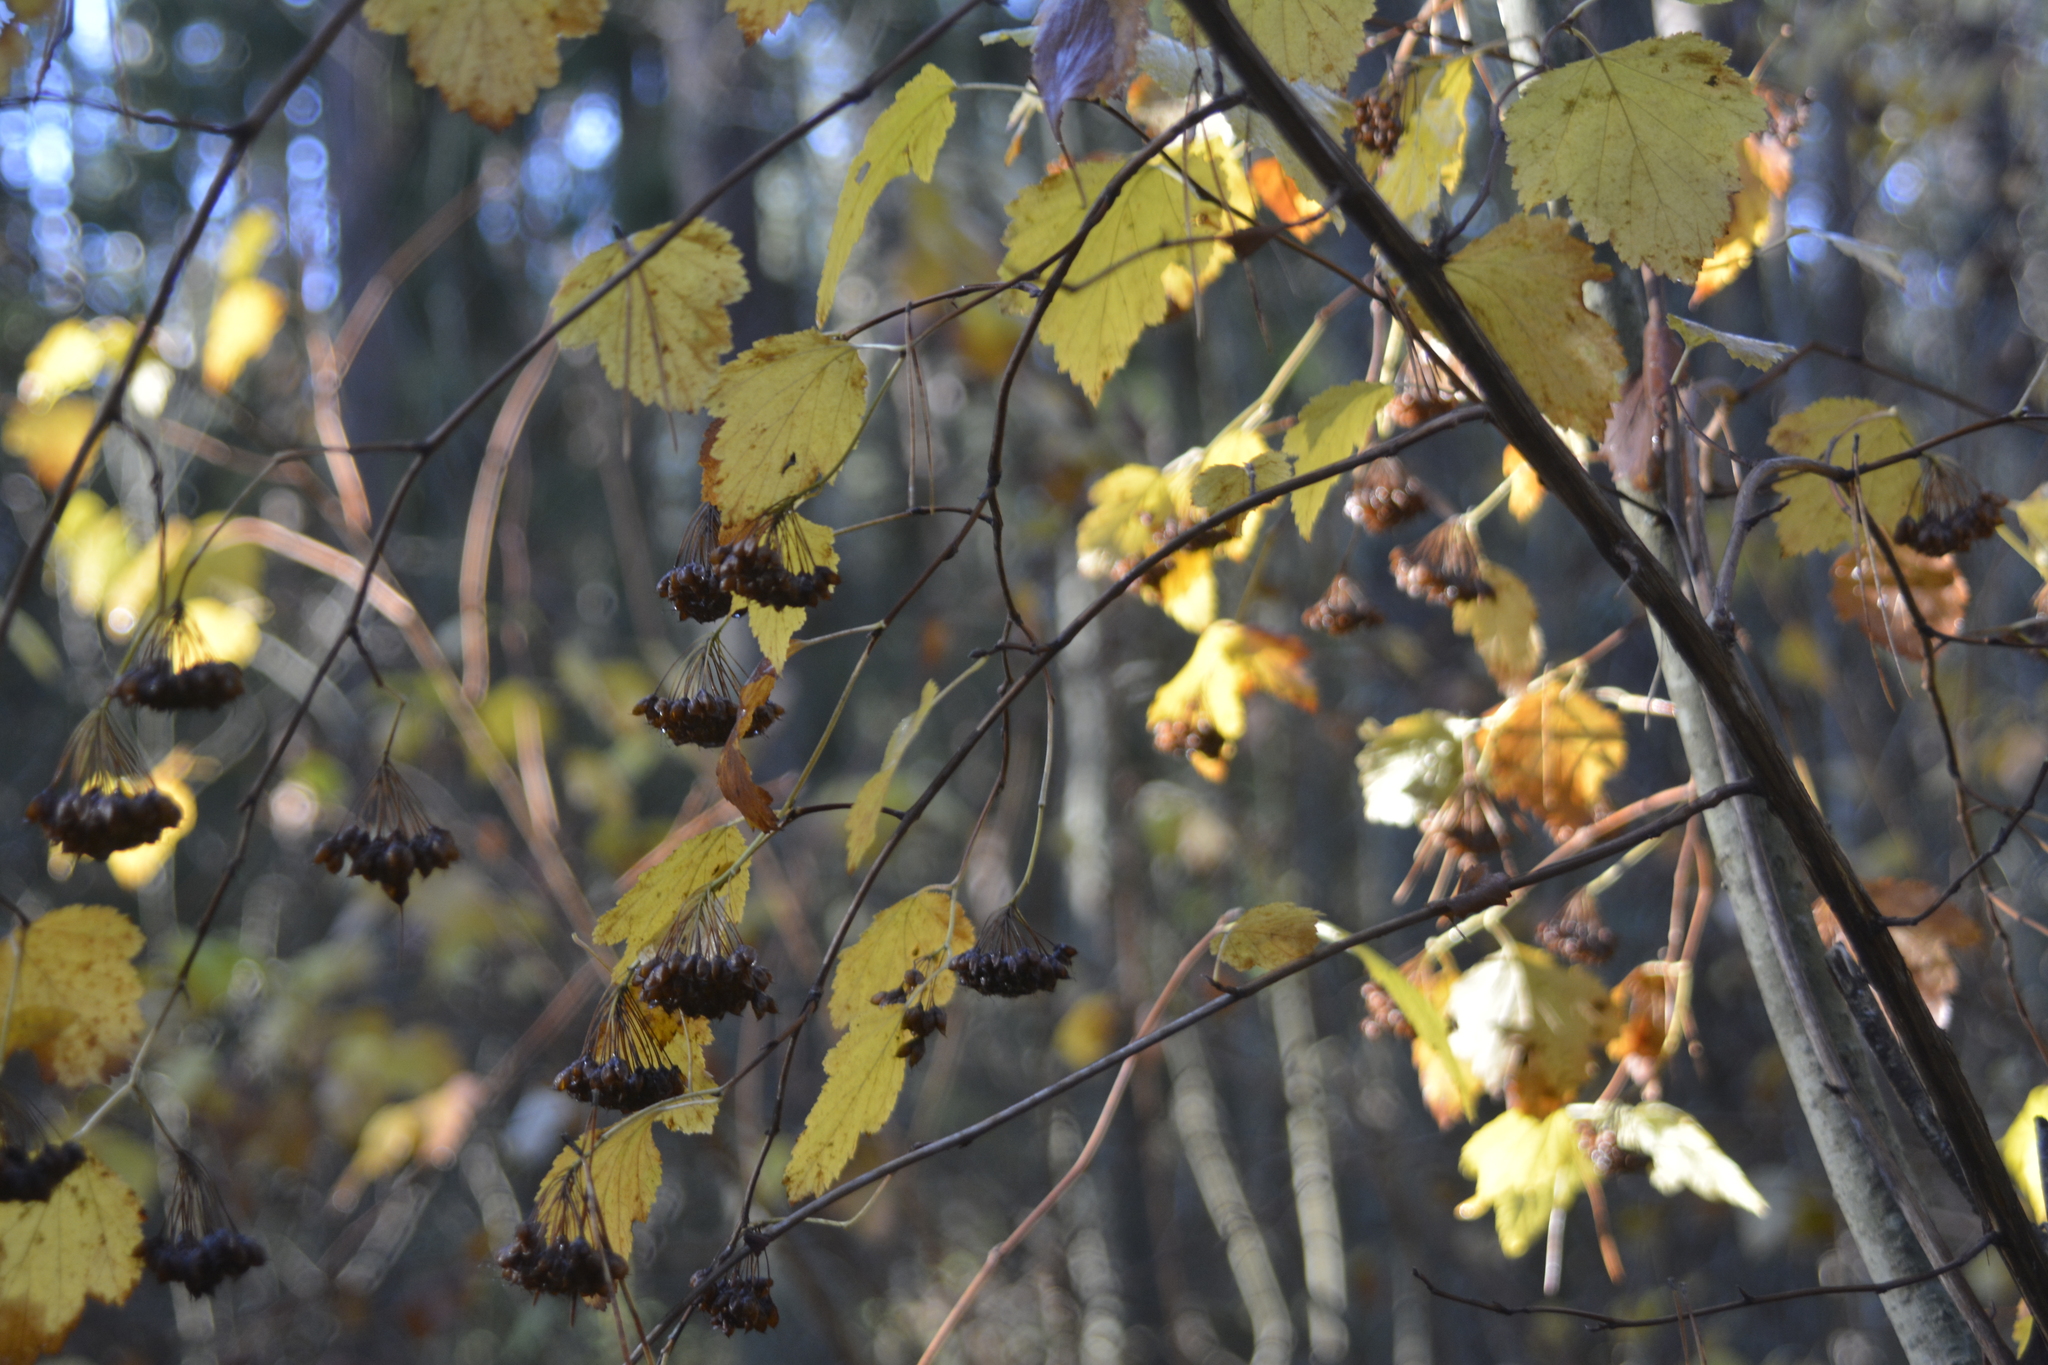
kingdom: Plantae
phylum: Tracheophyta
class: Magnoliopsida
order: Rosales
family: Rosaceae
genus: Physocarpus
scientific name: Physocarpus opulifolius
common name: Ninebark
